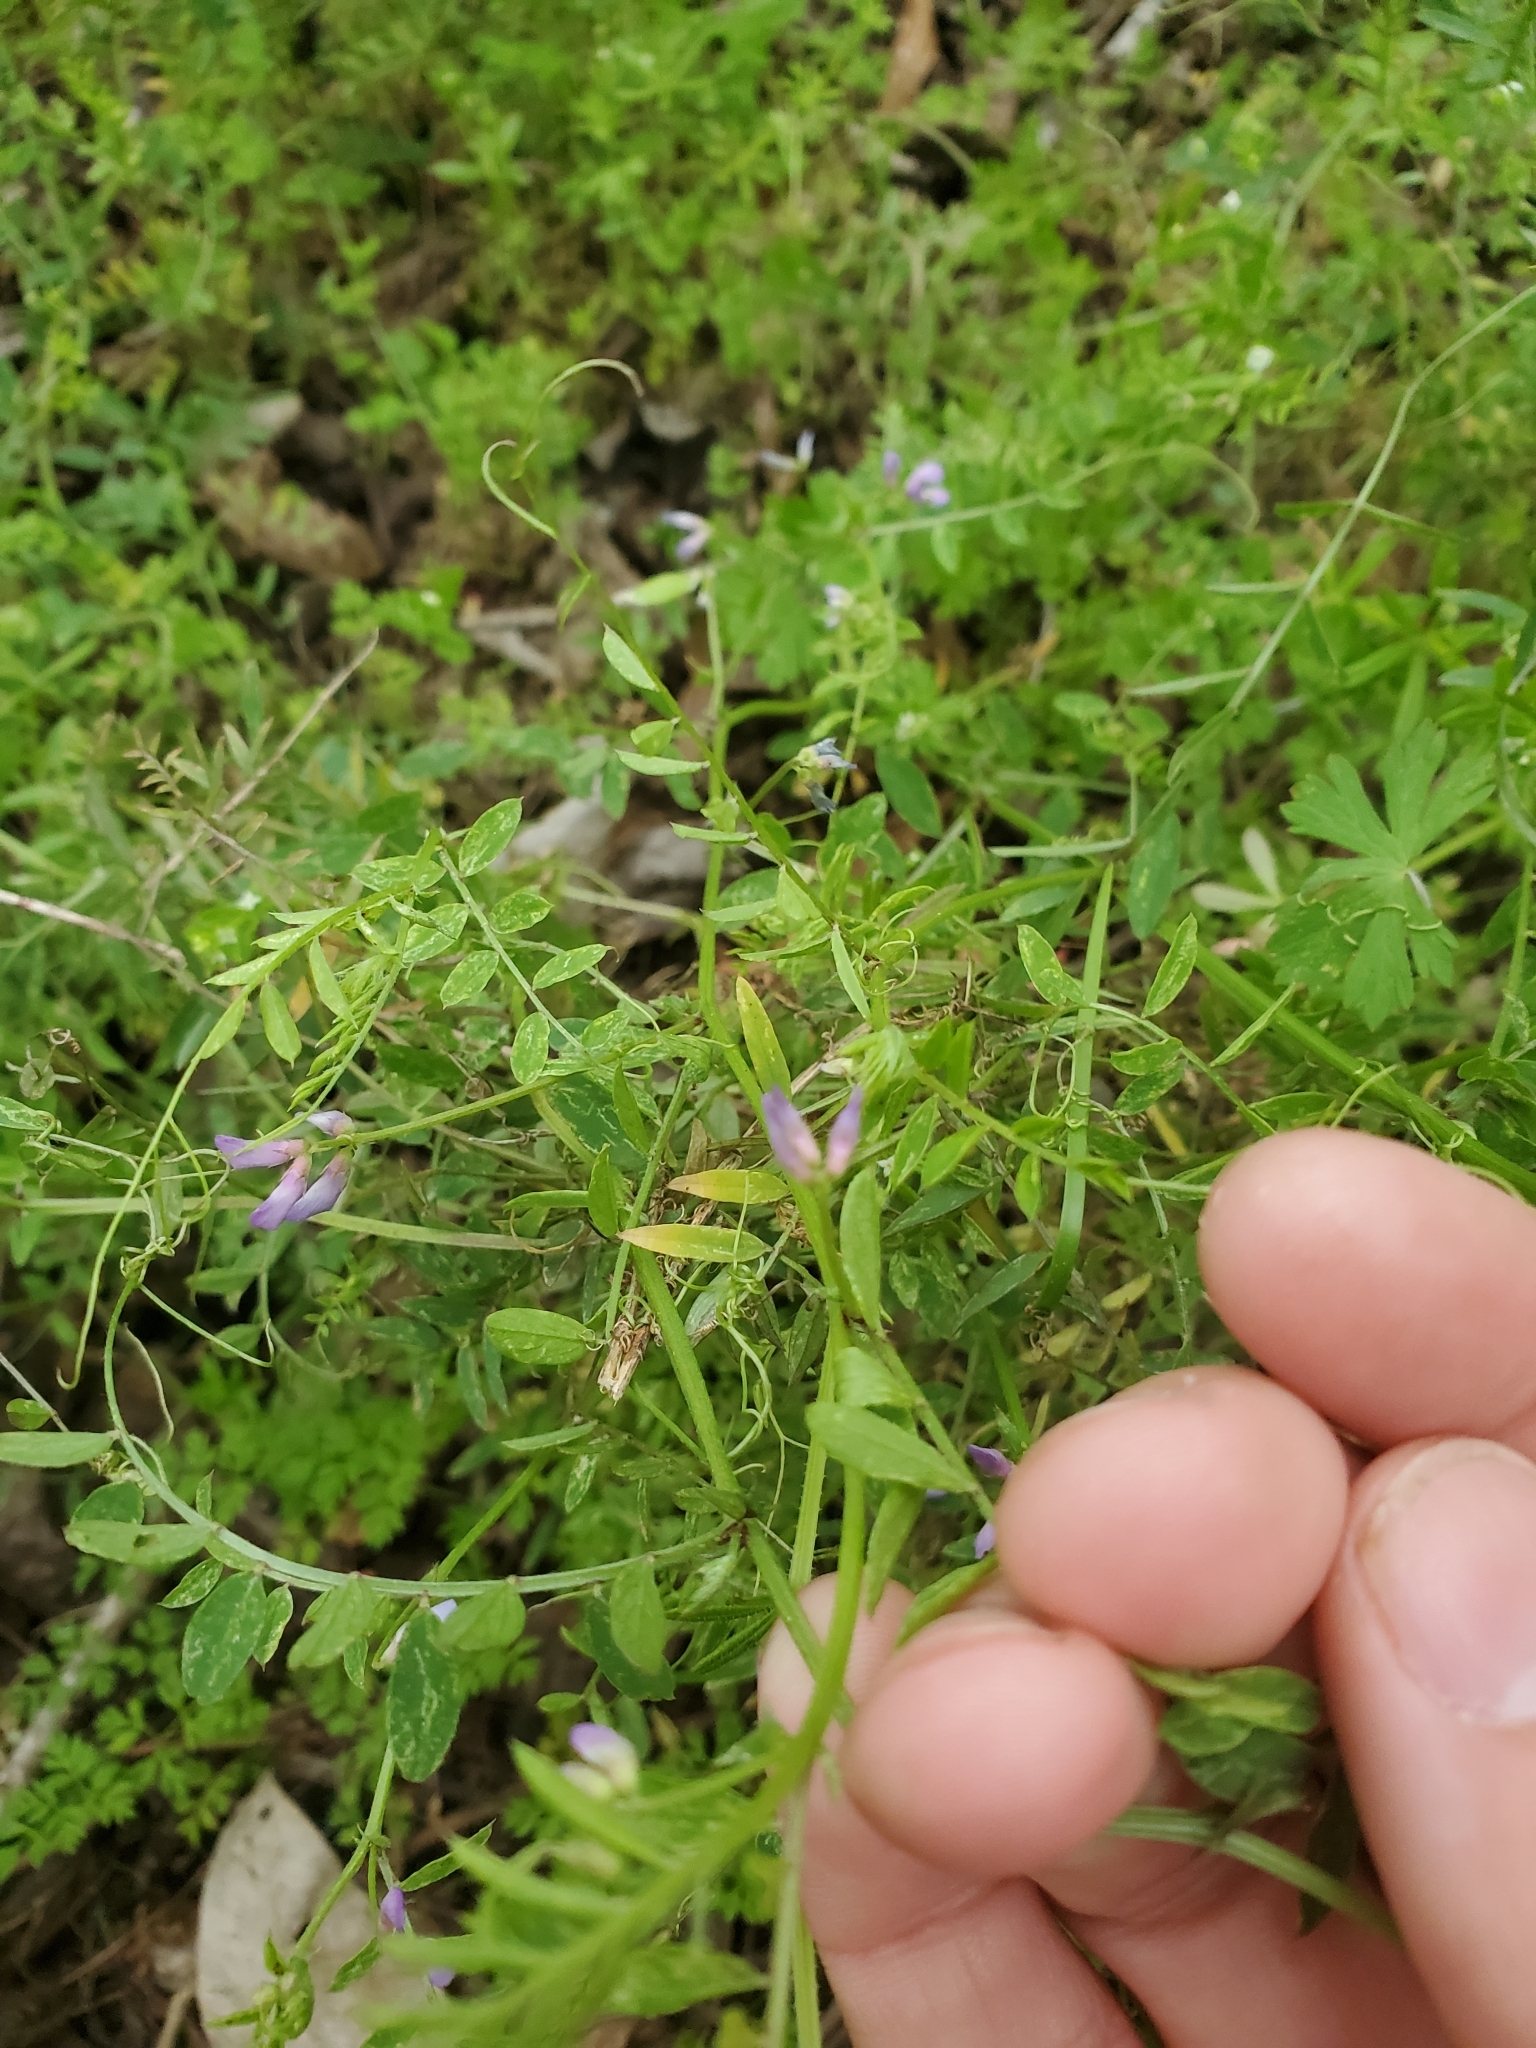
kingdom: Plantae
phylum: Tracheophyta
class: Magnoliopsida
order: Fabales
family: Fabaceae
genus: Vicia
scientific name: Vicia ludoviciana
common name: Louisiana vetch
